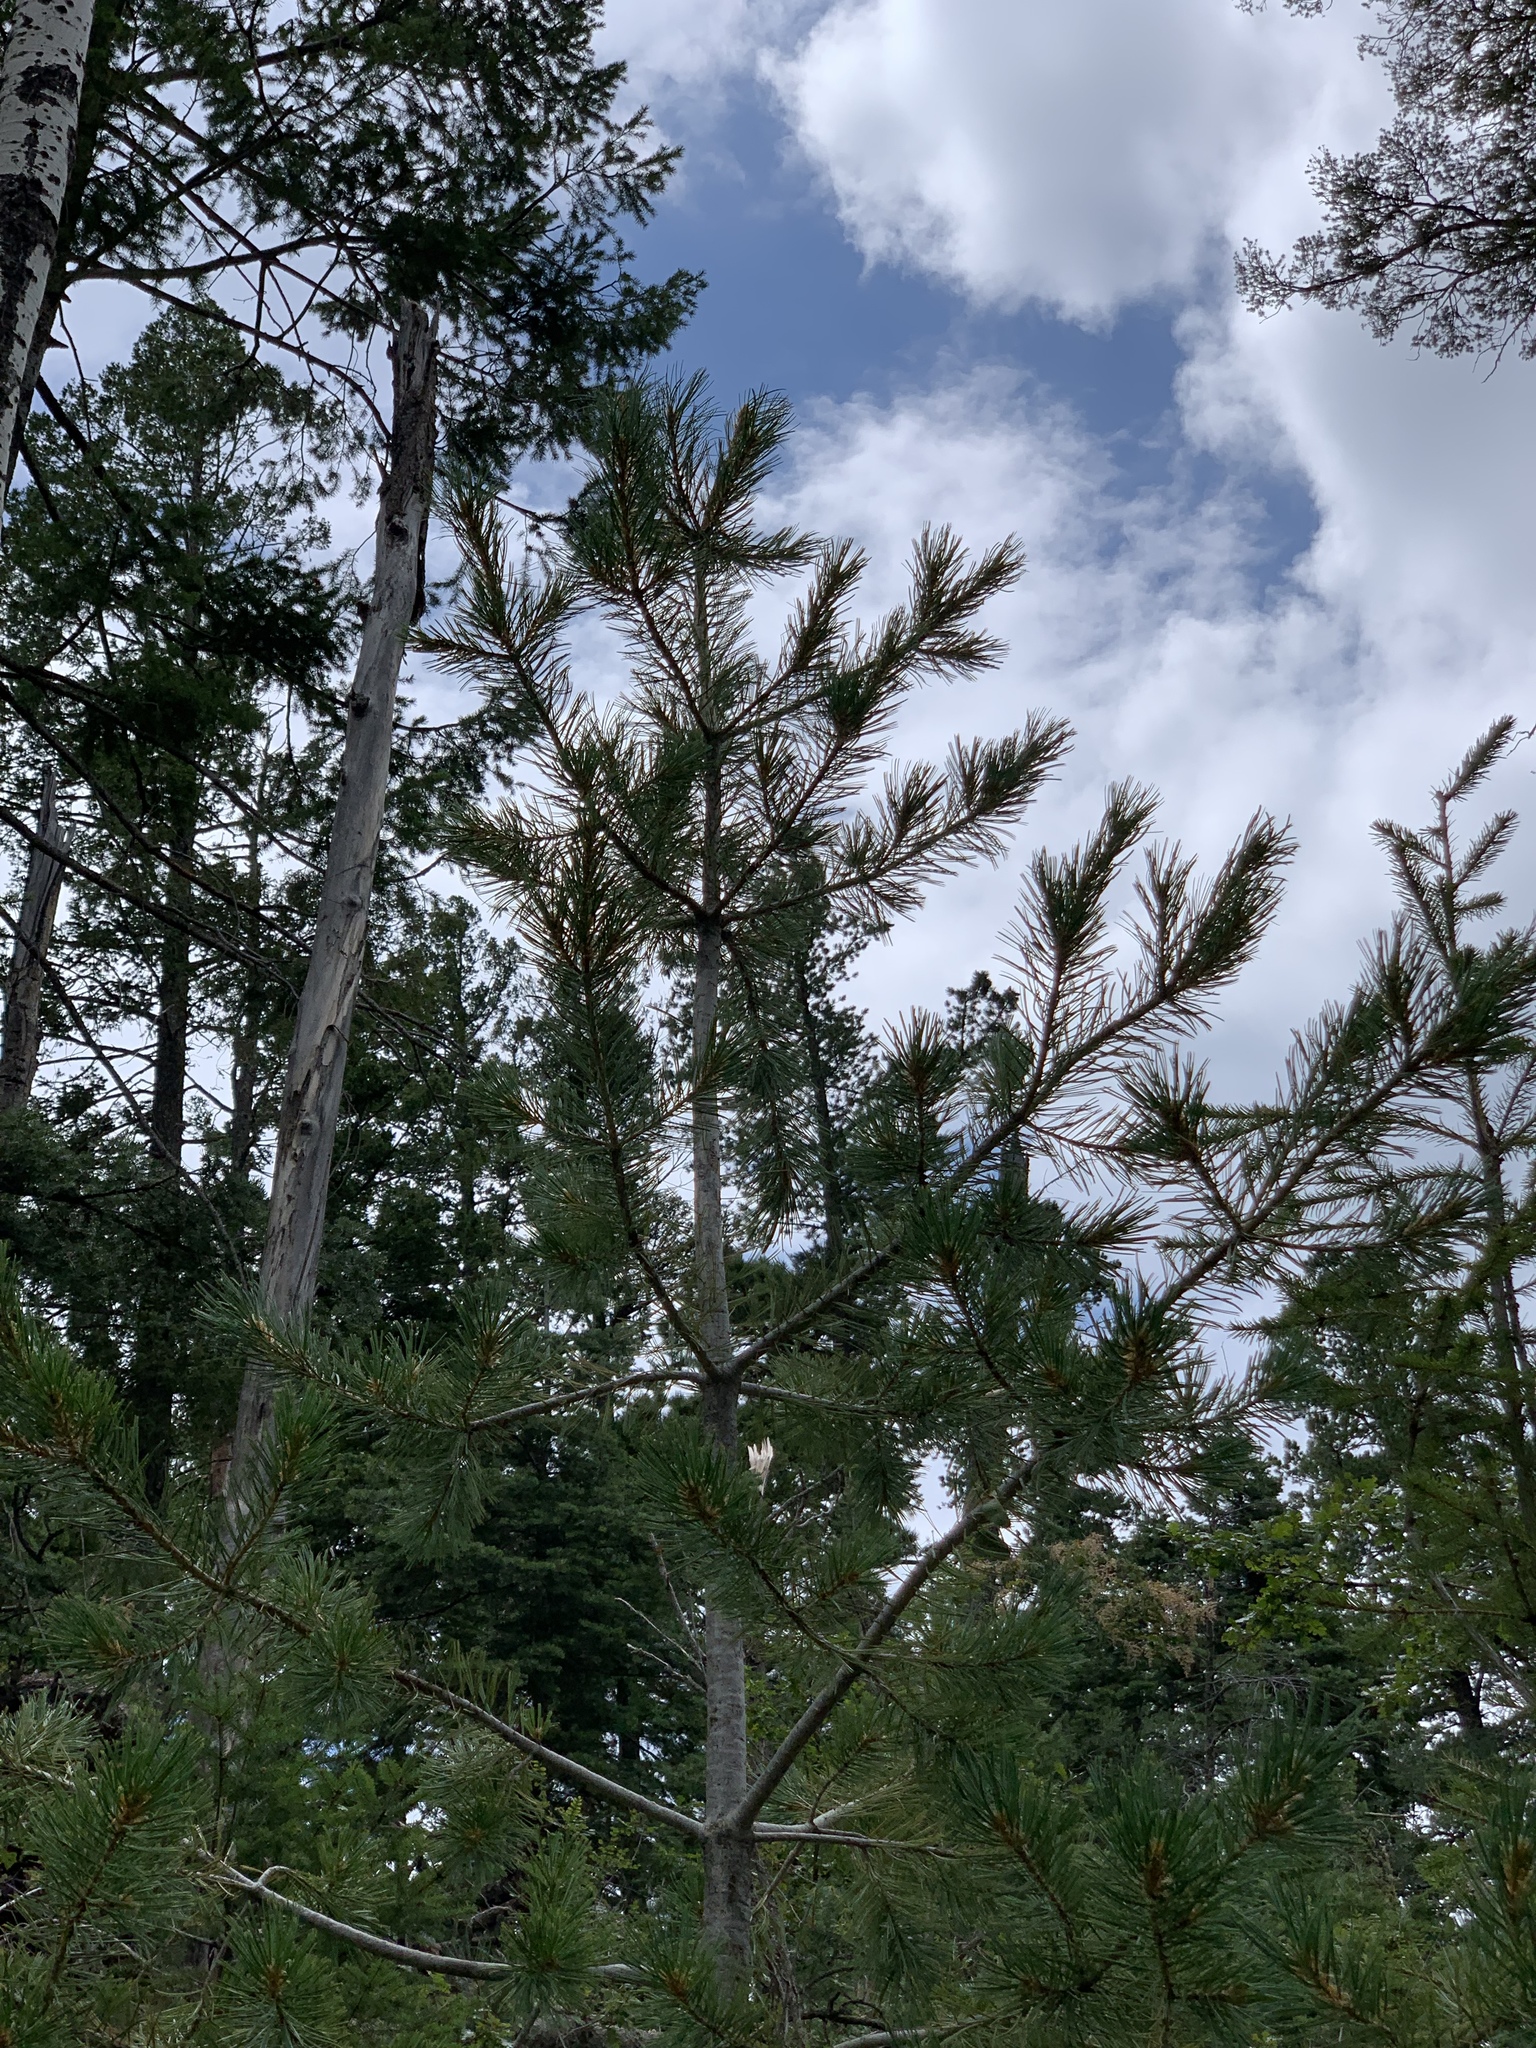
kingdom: Plantae
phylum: Tracheophyta
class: Pinopsida
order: Pinales
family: Pinaceae
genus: Pinus
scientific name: Pinus strobiformis
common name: Southwestern white pine
